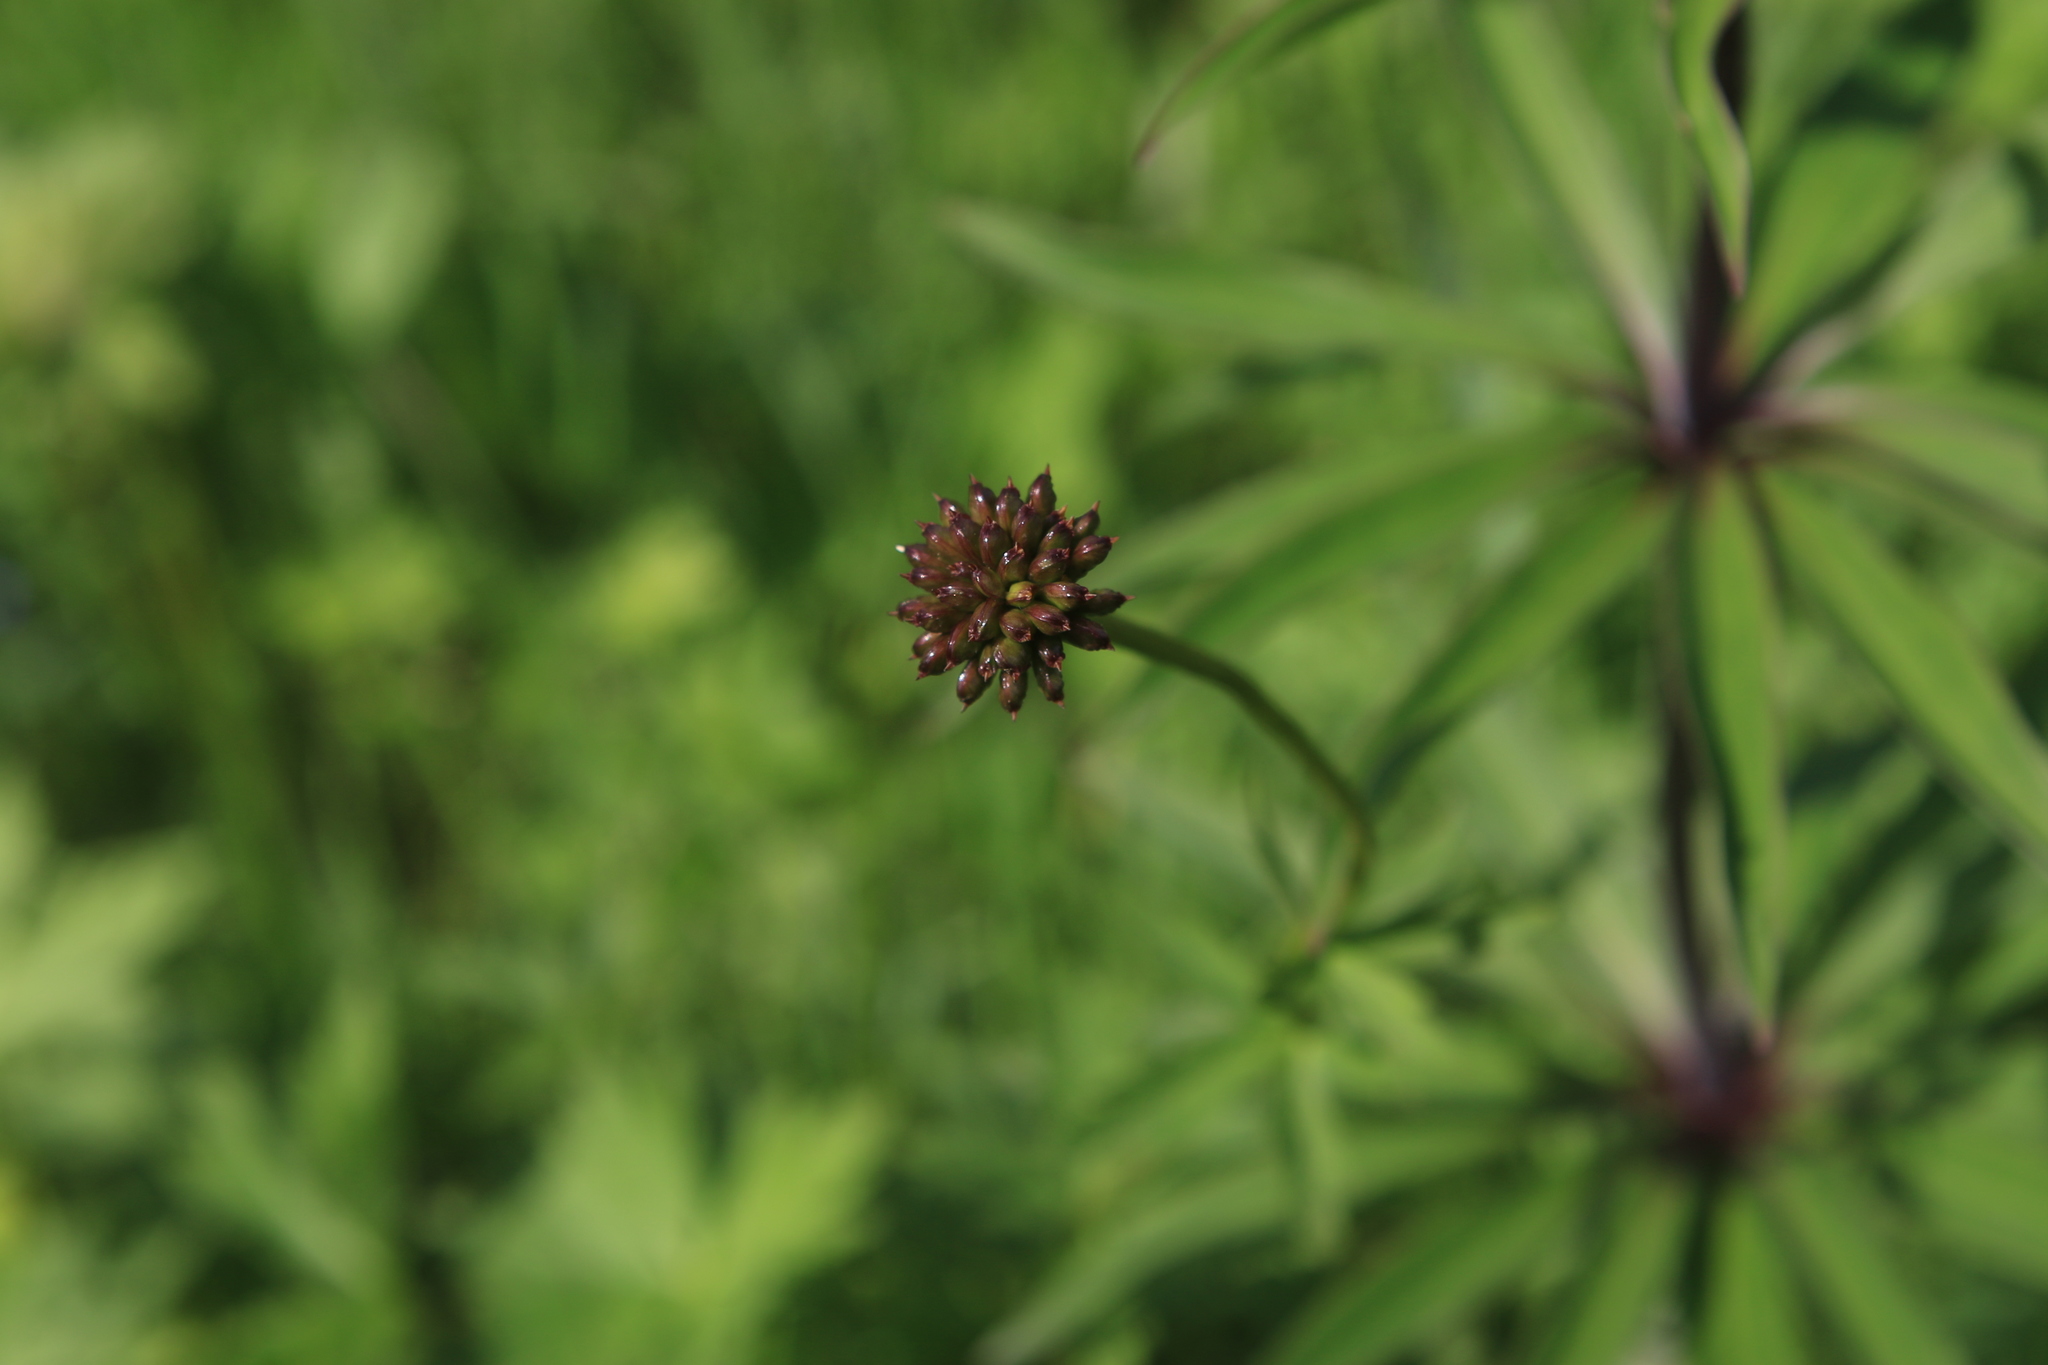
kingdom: Plantae
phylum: Tracheophyta
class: Magnoliopsida
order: Ranunculales
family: Ranunculaceae
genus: Trollius
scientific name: Trollius asiaticus
